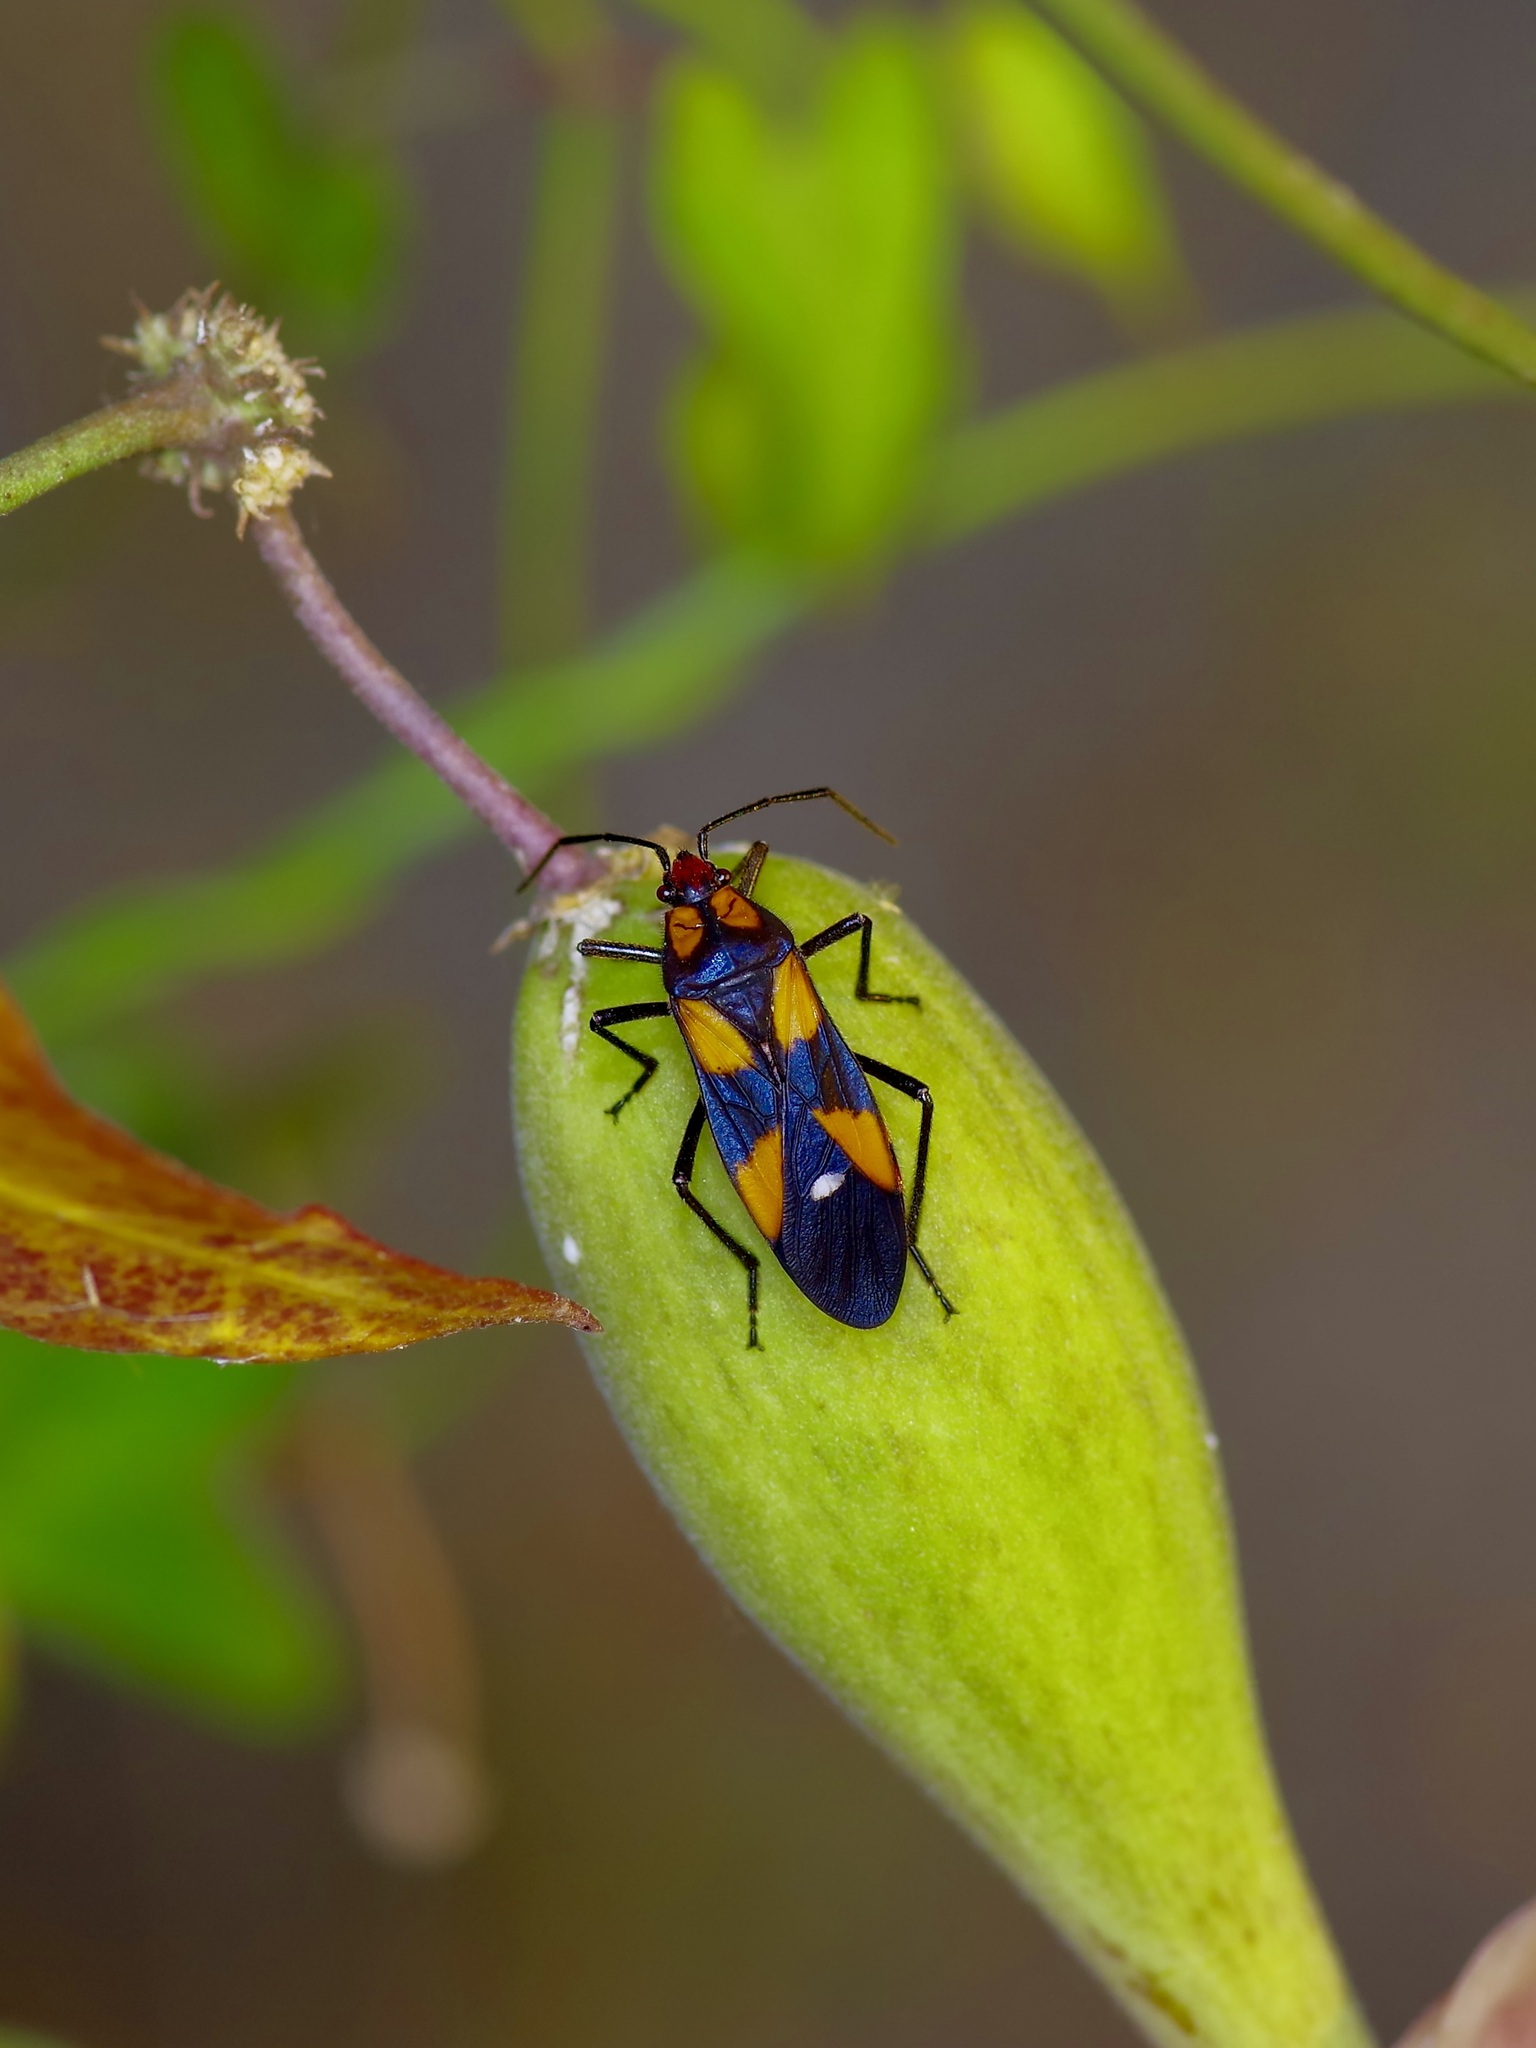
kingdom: Animalia
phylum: Arthropoda
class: Insecta
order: Hemiptera
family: Lygaeidae
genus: Oncopeltus
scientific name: Oncopeltus sexmaculatus
